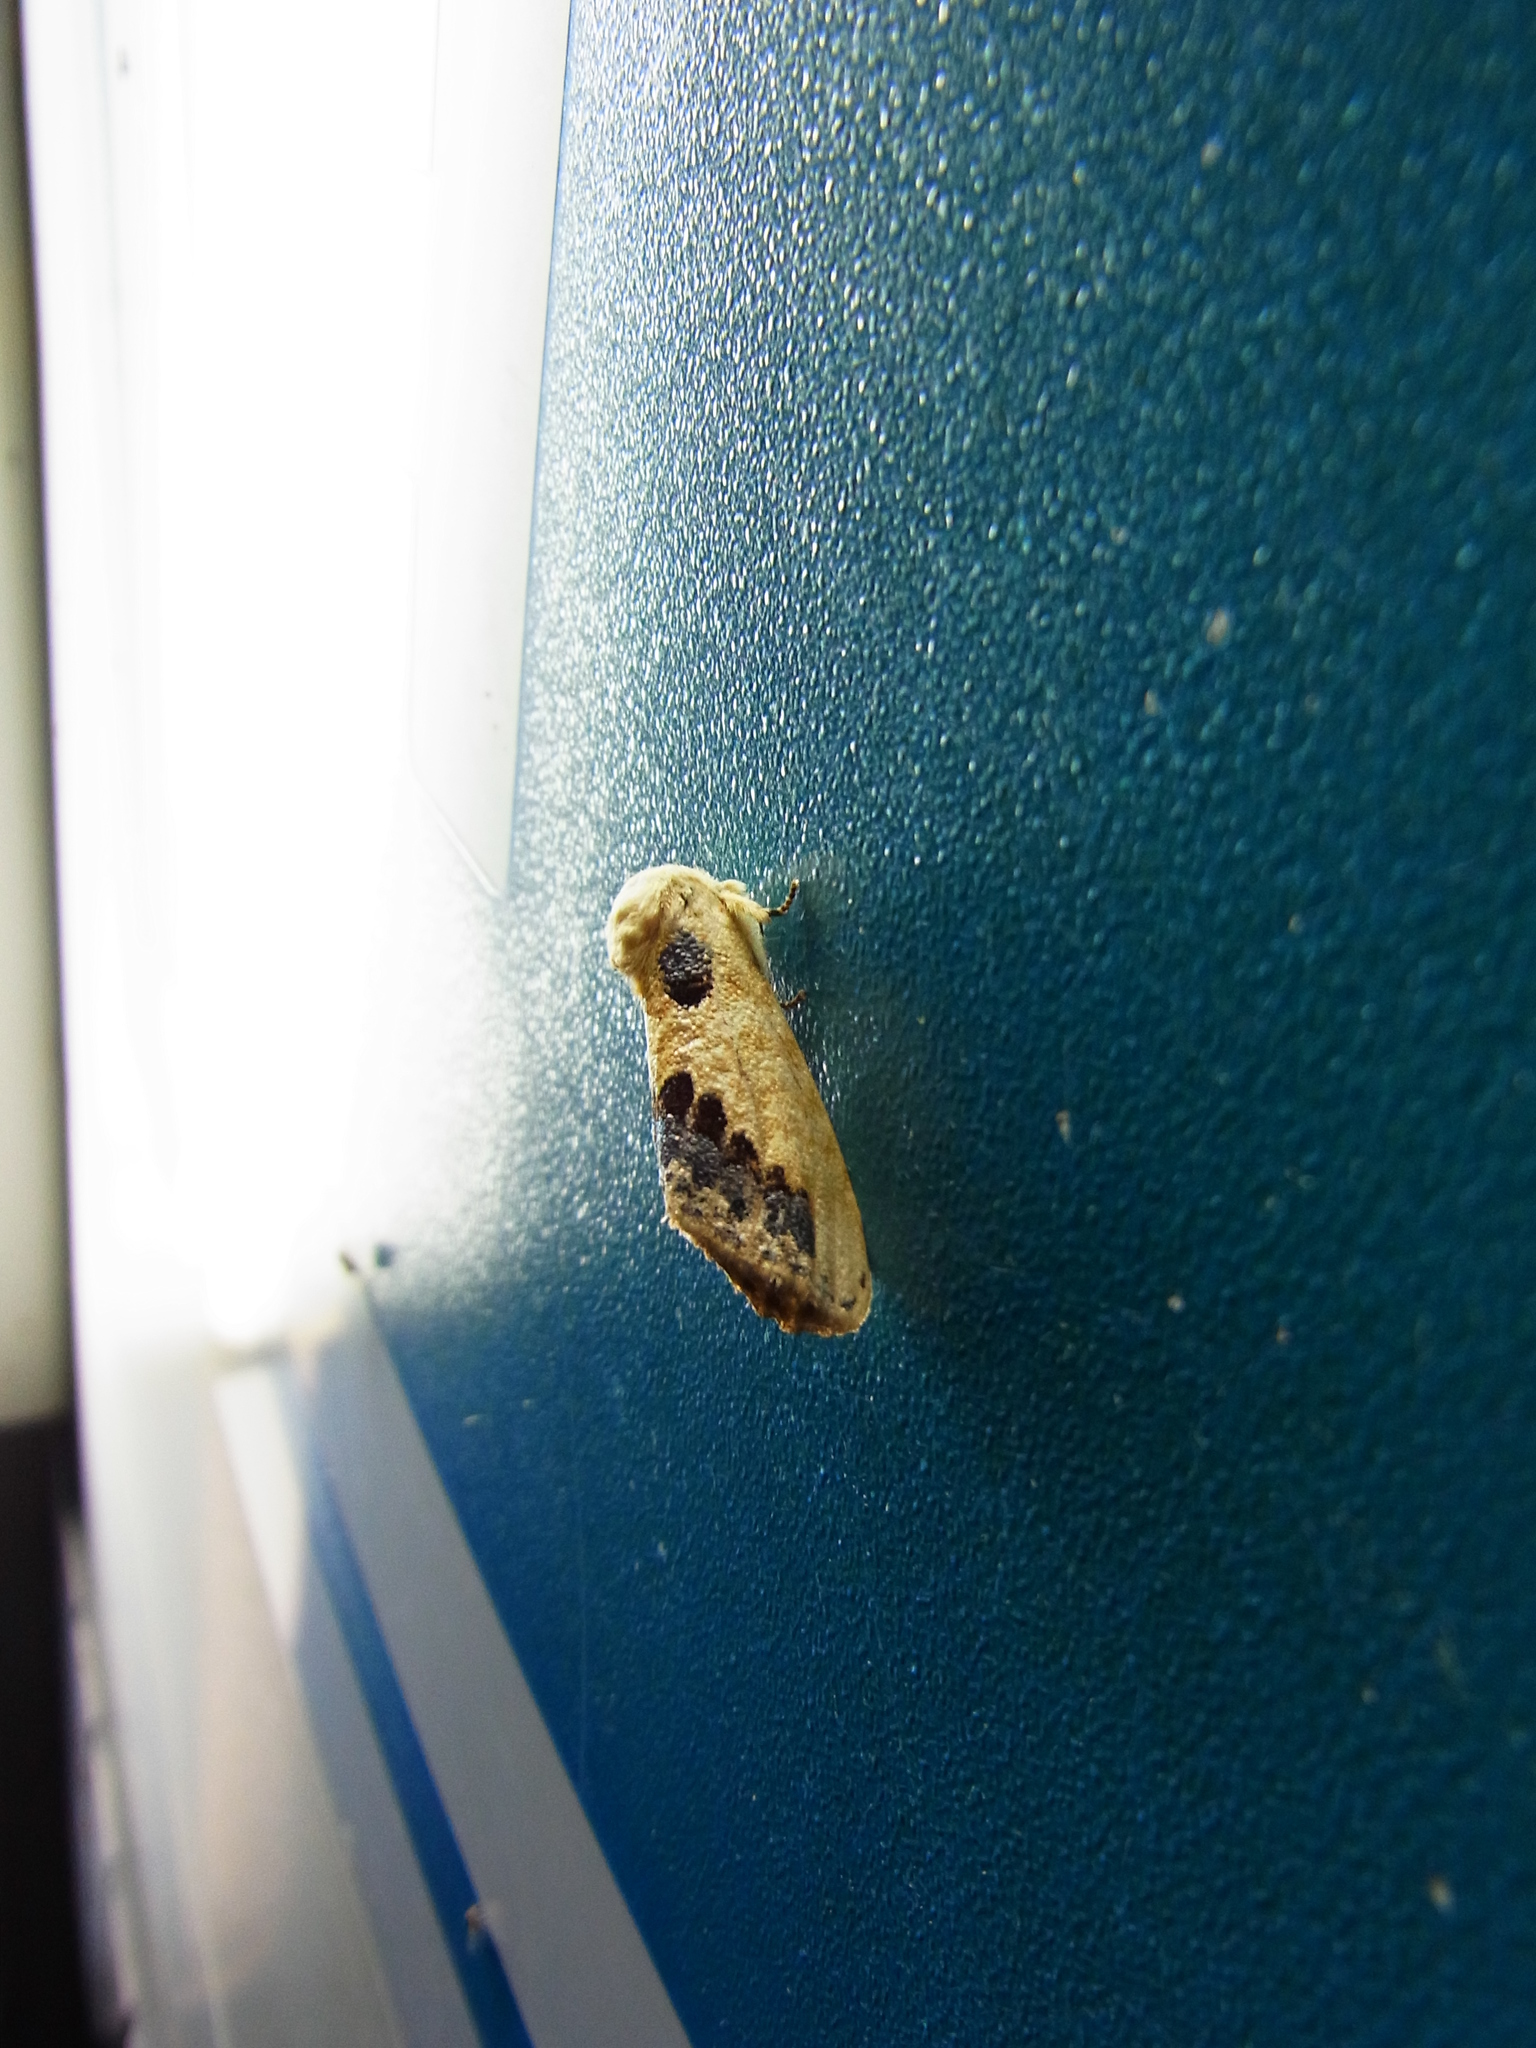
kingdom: Animalia
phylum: Arthropoda
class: Insecta
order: Lepidoptera
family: Notodontidae
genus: Phalera
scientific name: Phalera flavescens
